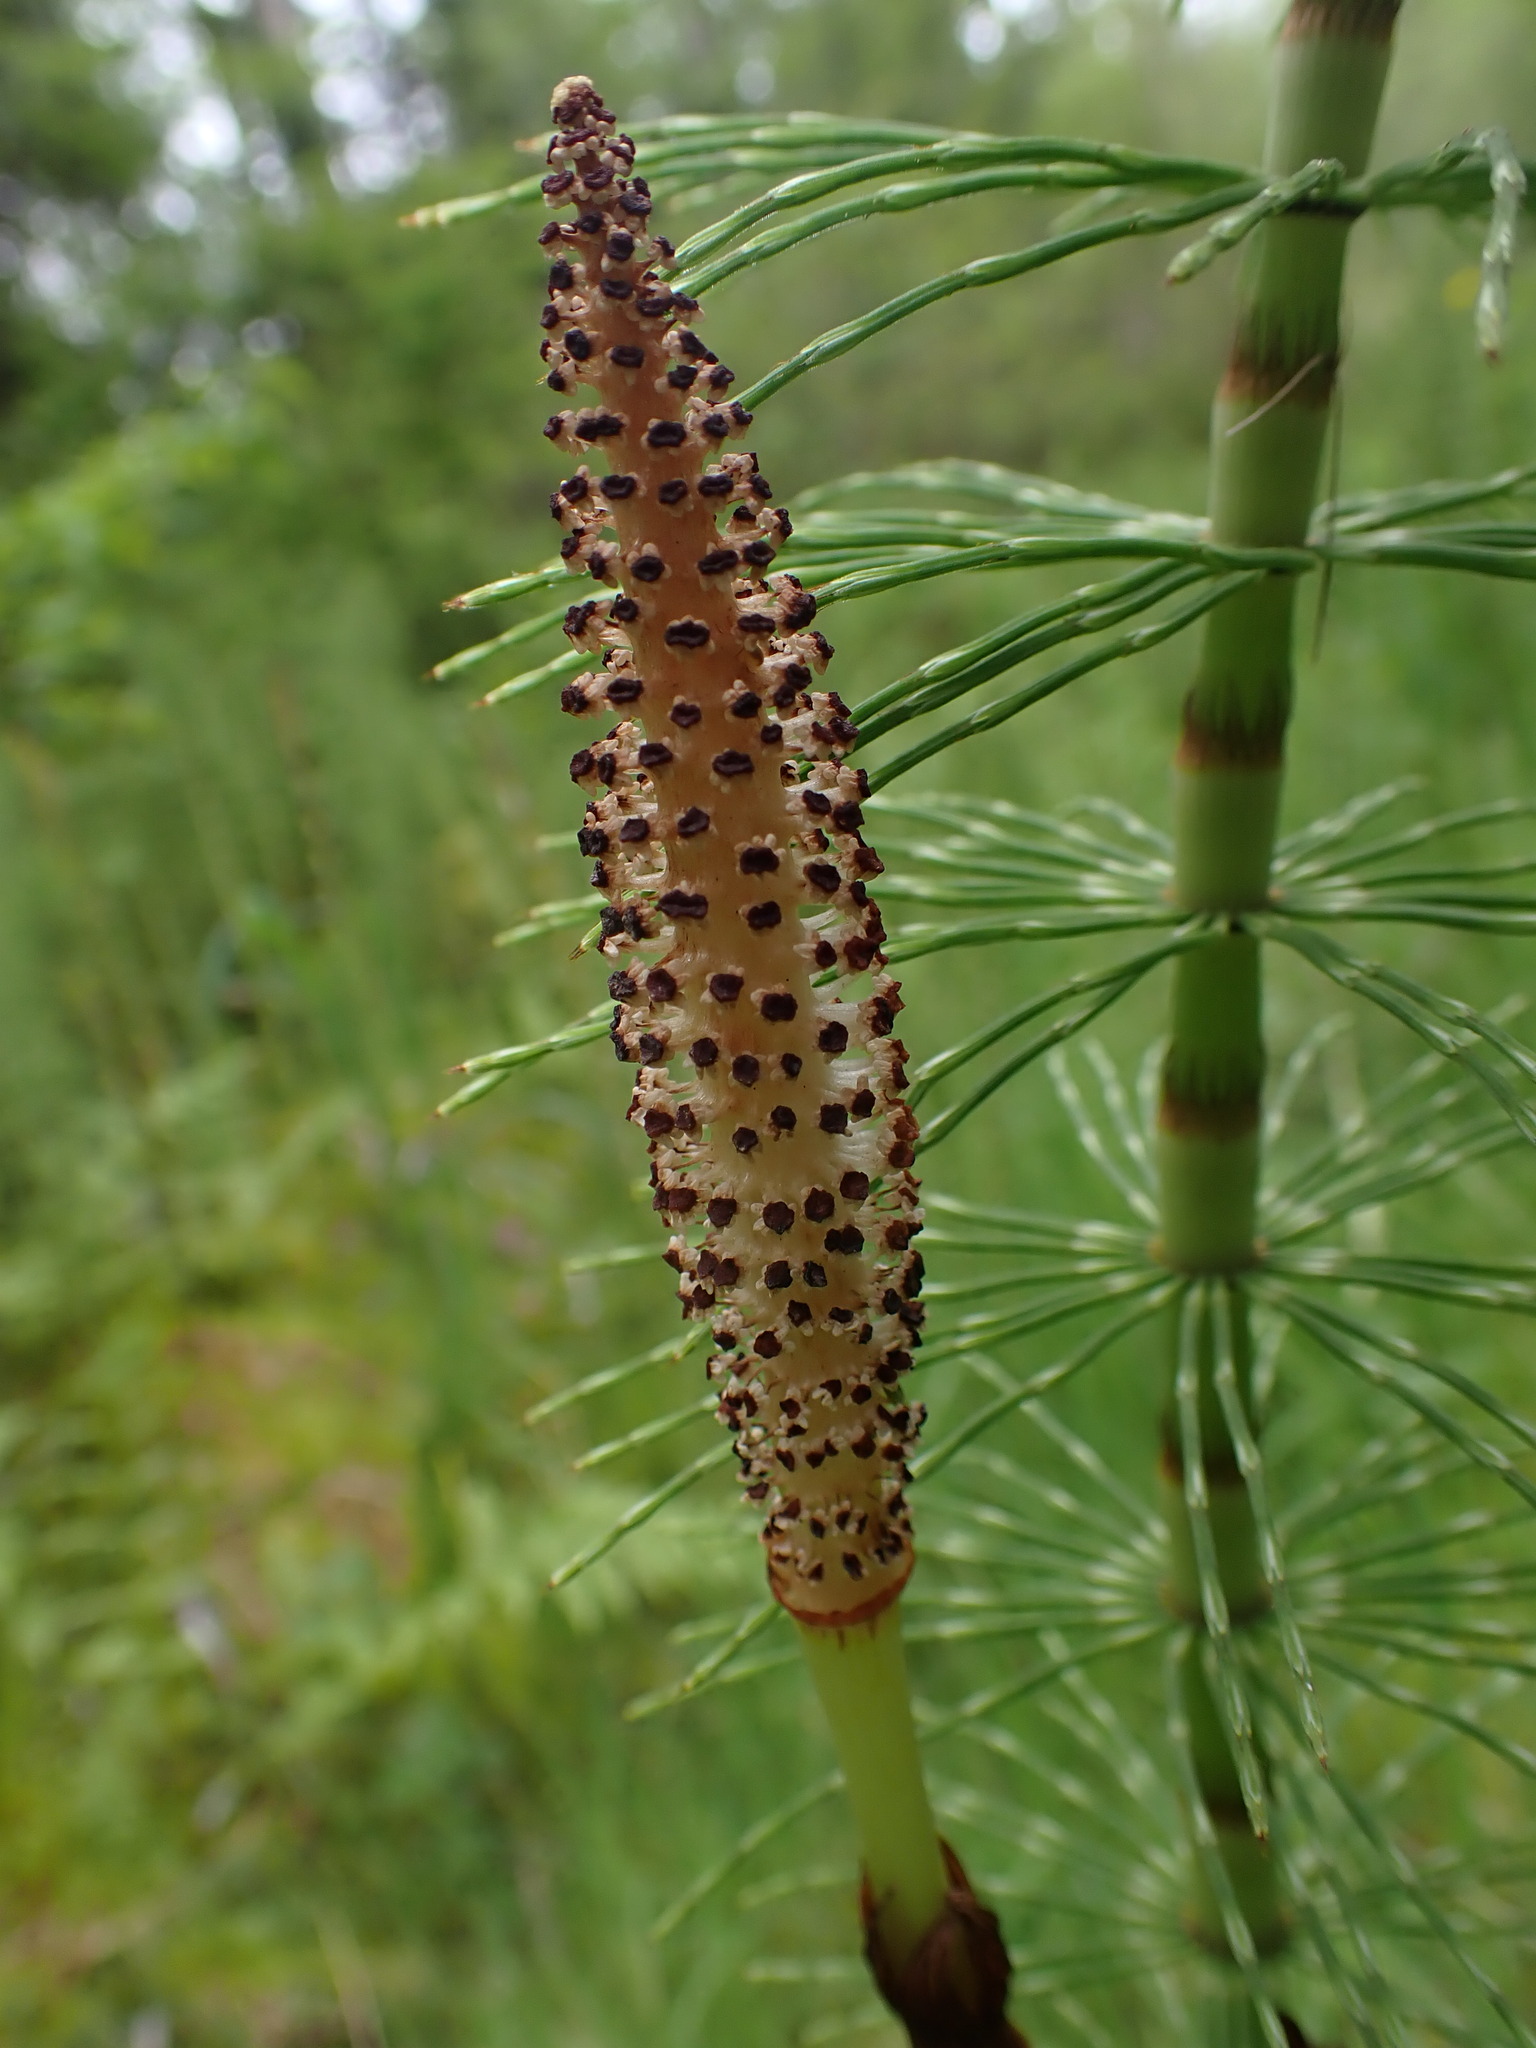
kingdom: Plantae
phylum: Tracheophyta
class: Polypodiopsida
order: Equisetales
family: Equisetaceae
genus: Equisetum
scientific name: Equisetum braunii
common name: Braun's horsetail
